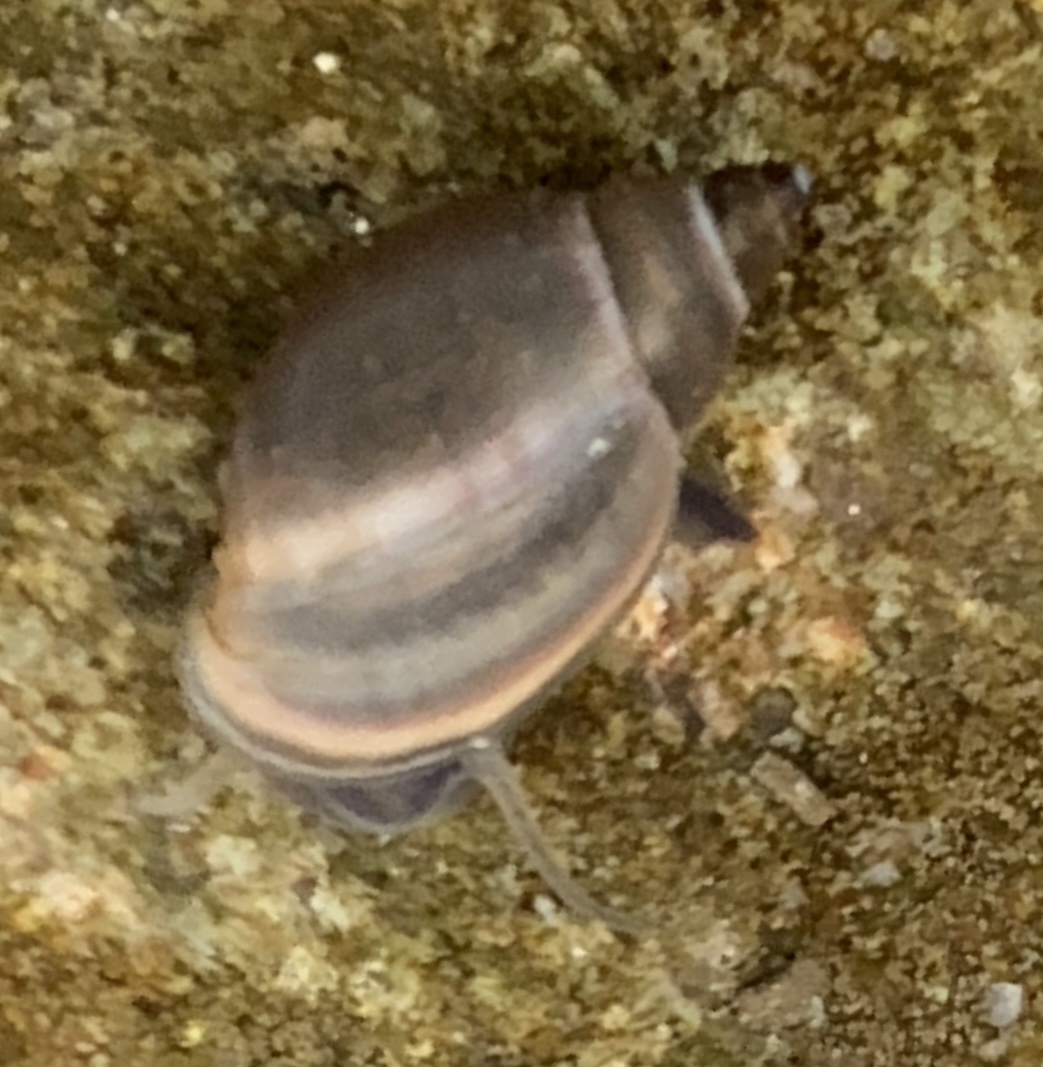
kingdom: Animalia
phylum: Mollusca
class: Gastropoda
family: Physidae
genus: Physella
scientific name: Physella acuta
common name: European physa
